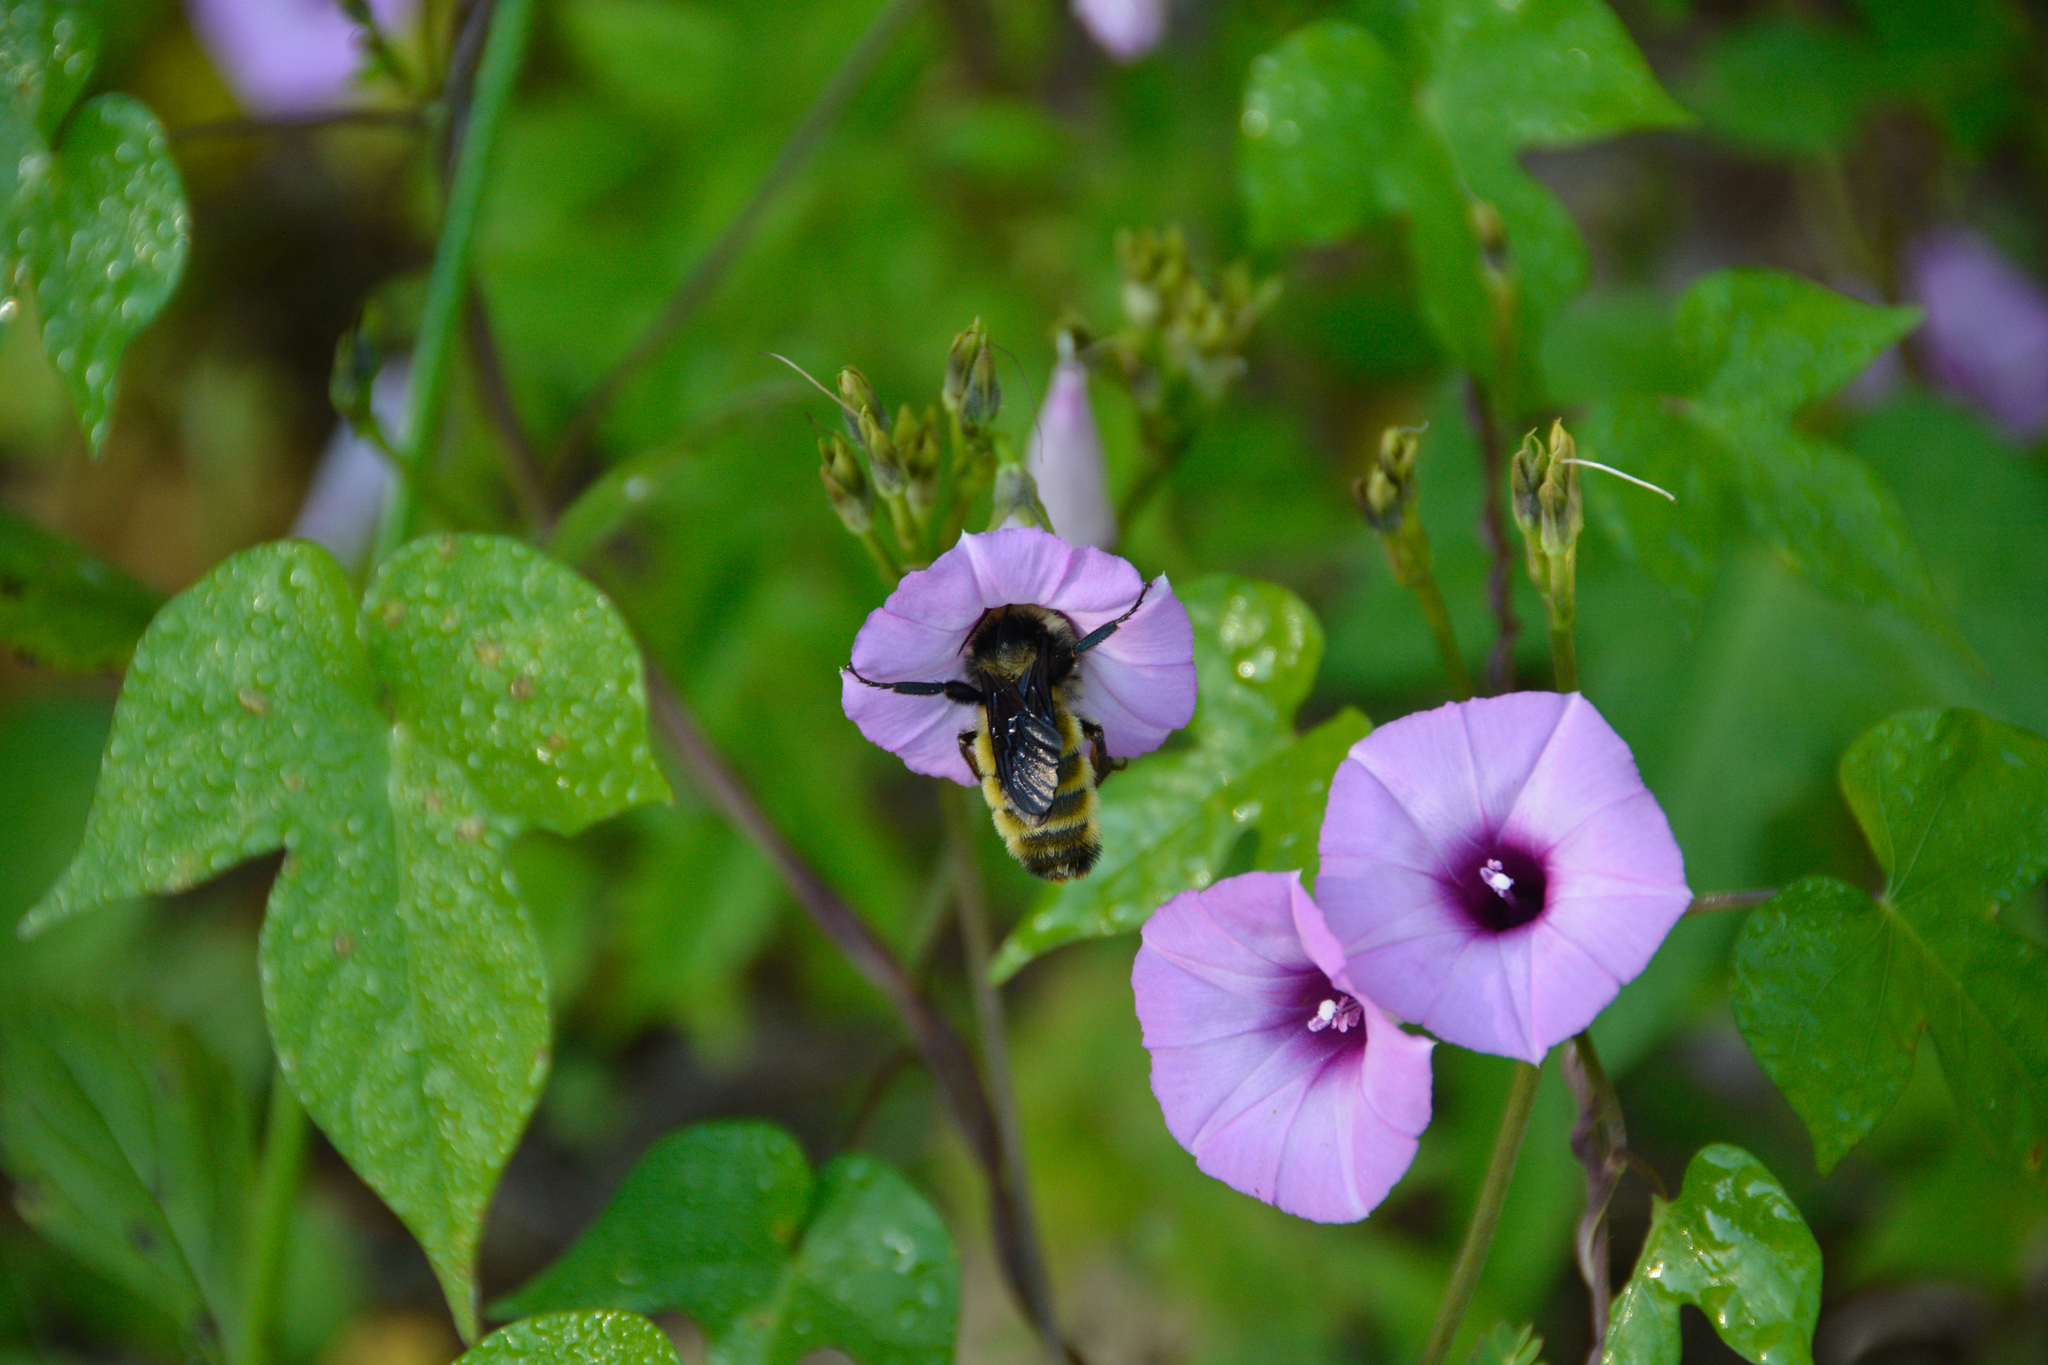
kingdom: Animalia
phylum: Arthropoda
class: Insecta
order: Hymenoptera
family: Apidae
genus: Bombus
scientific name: Bombus pensylvanicus
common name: Bumble bee
